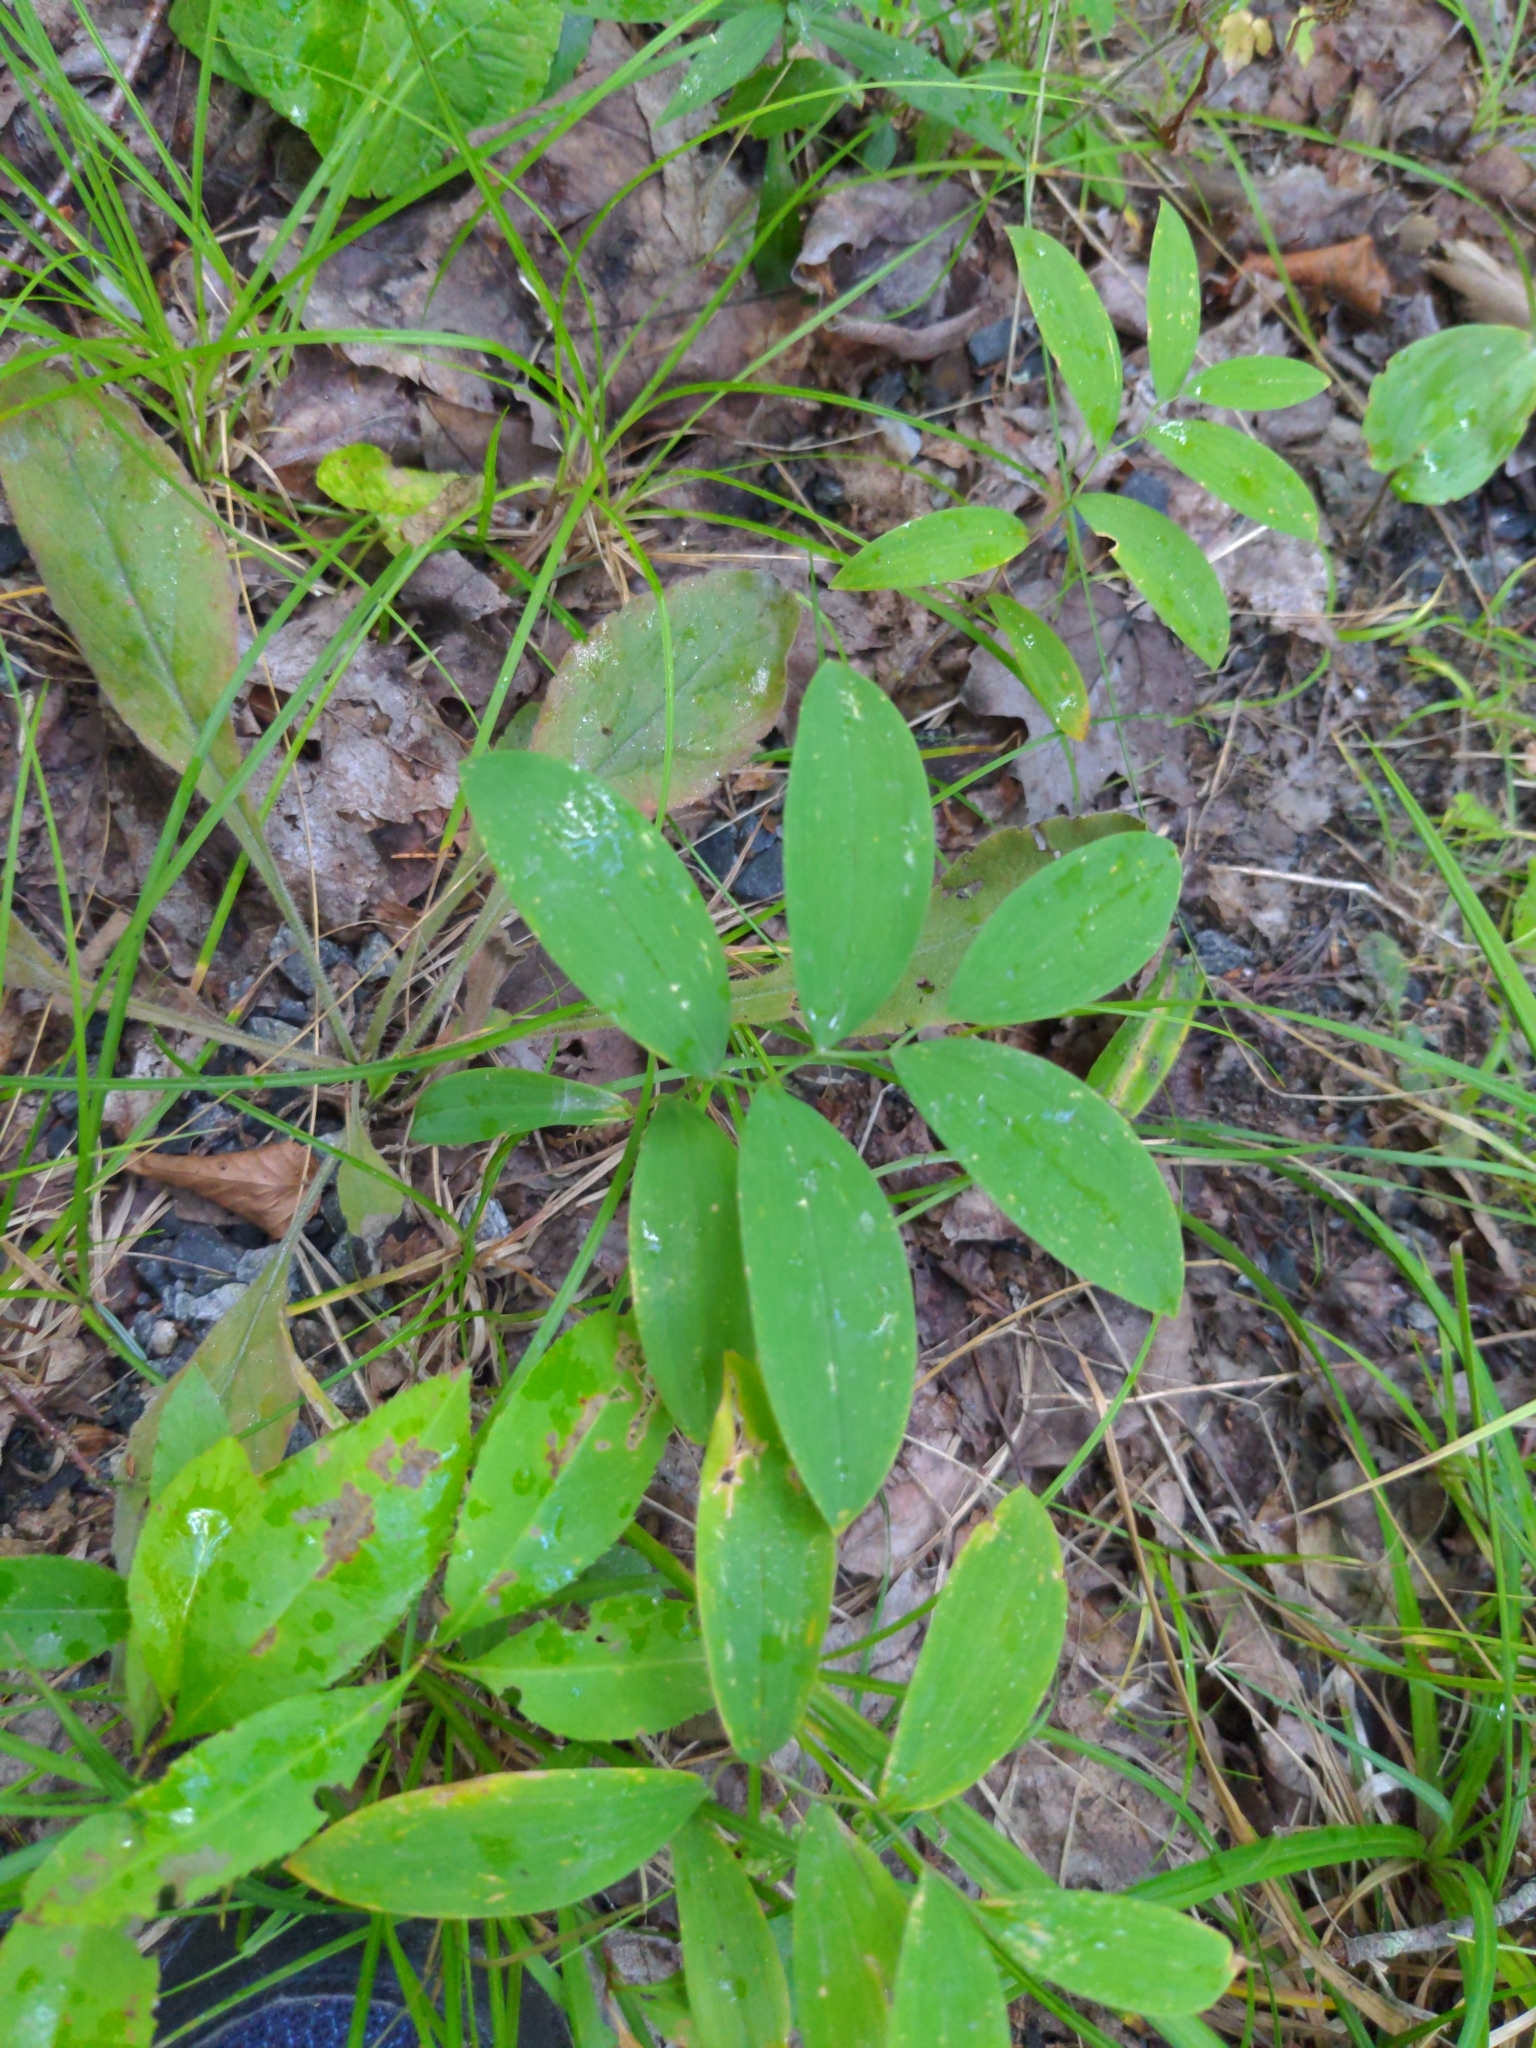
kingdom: Plantae
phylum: Tracheophyta
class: Liliopsida
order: Liliales
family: Colchicaceae
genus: Uvularia
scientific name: Uvularia sessilifolia
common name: Straw-lily
